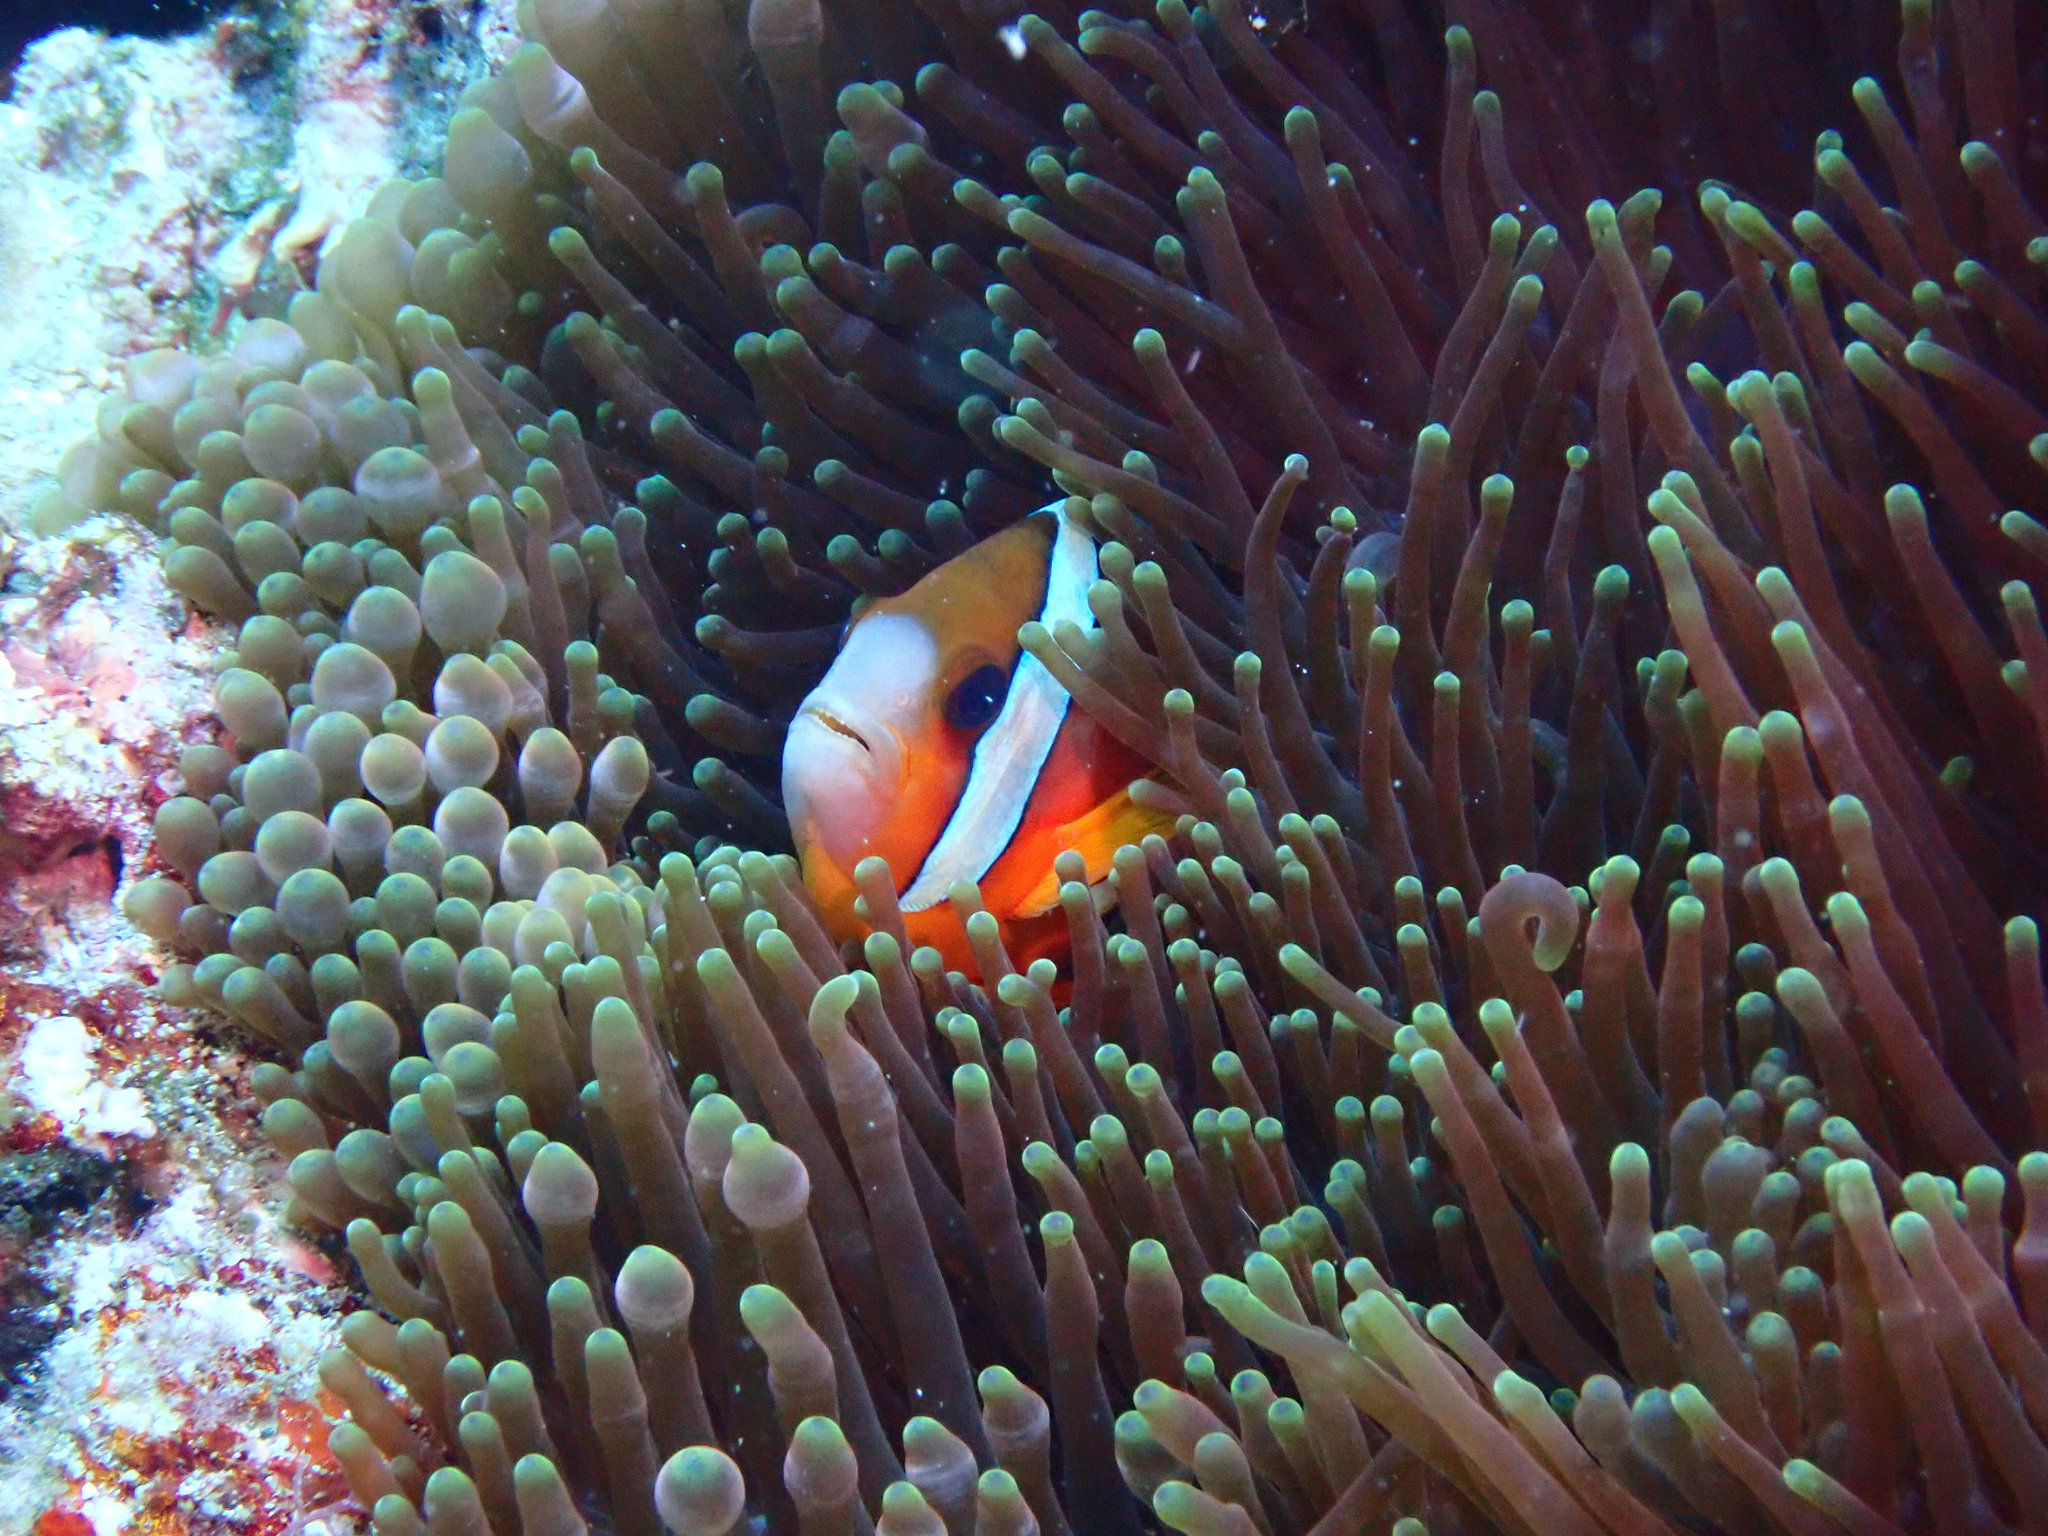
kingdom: Animalia
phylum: Chordata
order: Perciformes
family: Pomacentridae
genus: Amphiprion
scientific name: Amphiprion clarkii
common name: Clark's anemonefish
